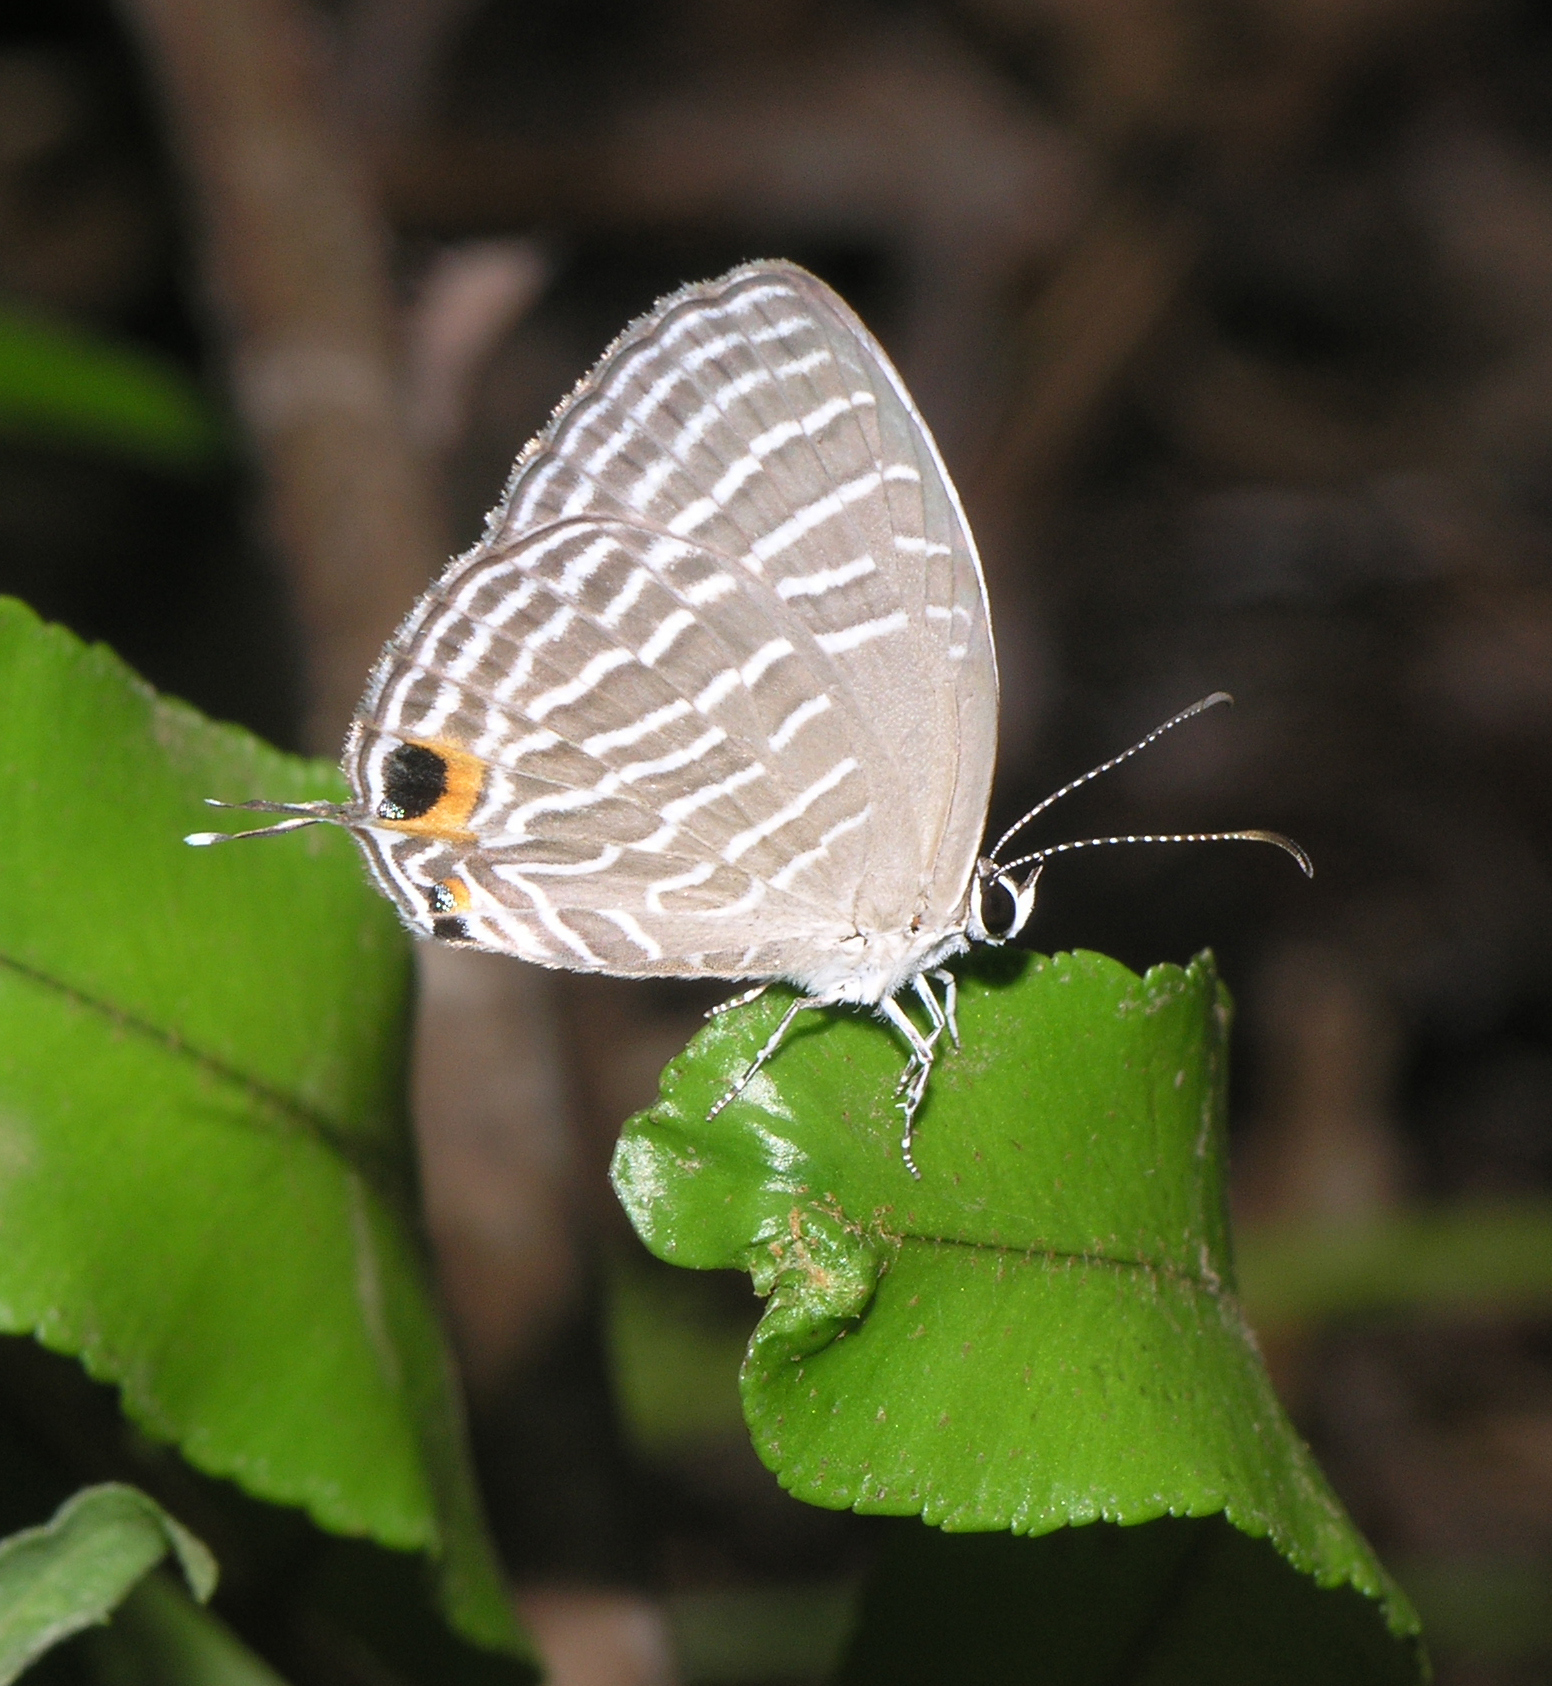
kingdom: Animalia
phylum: Arthropoda
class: Insecta
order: Lepidoptera
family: Lycaenidae
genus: Jamides
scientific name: Jamides celeno
